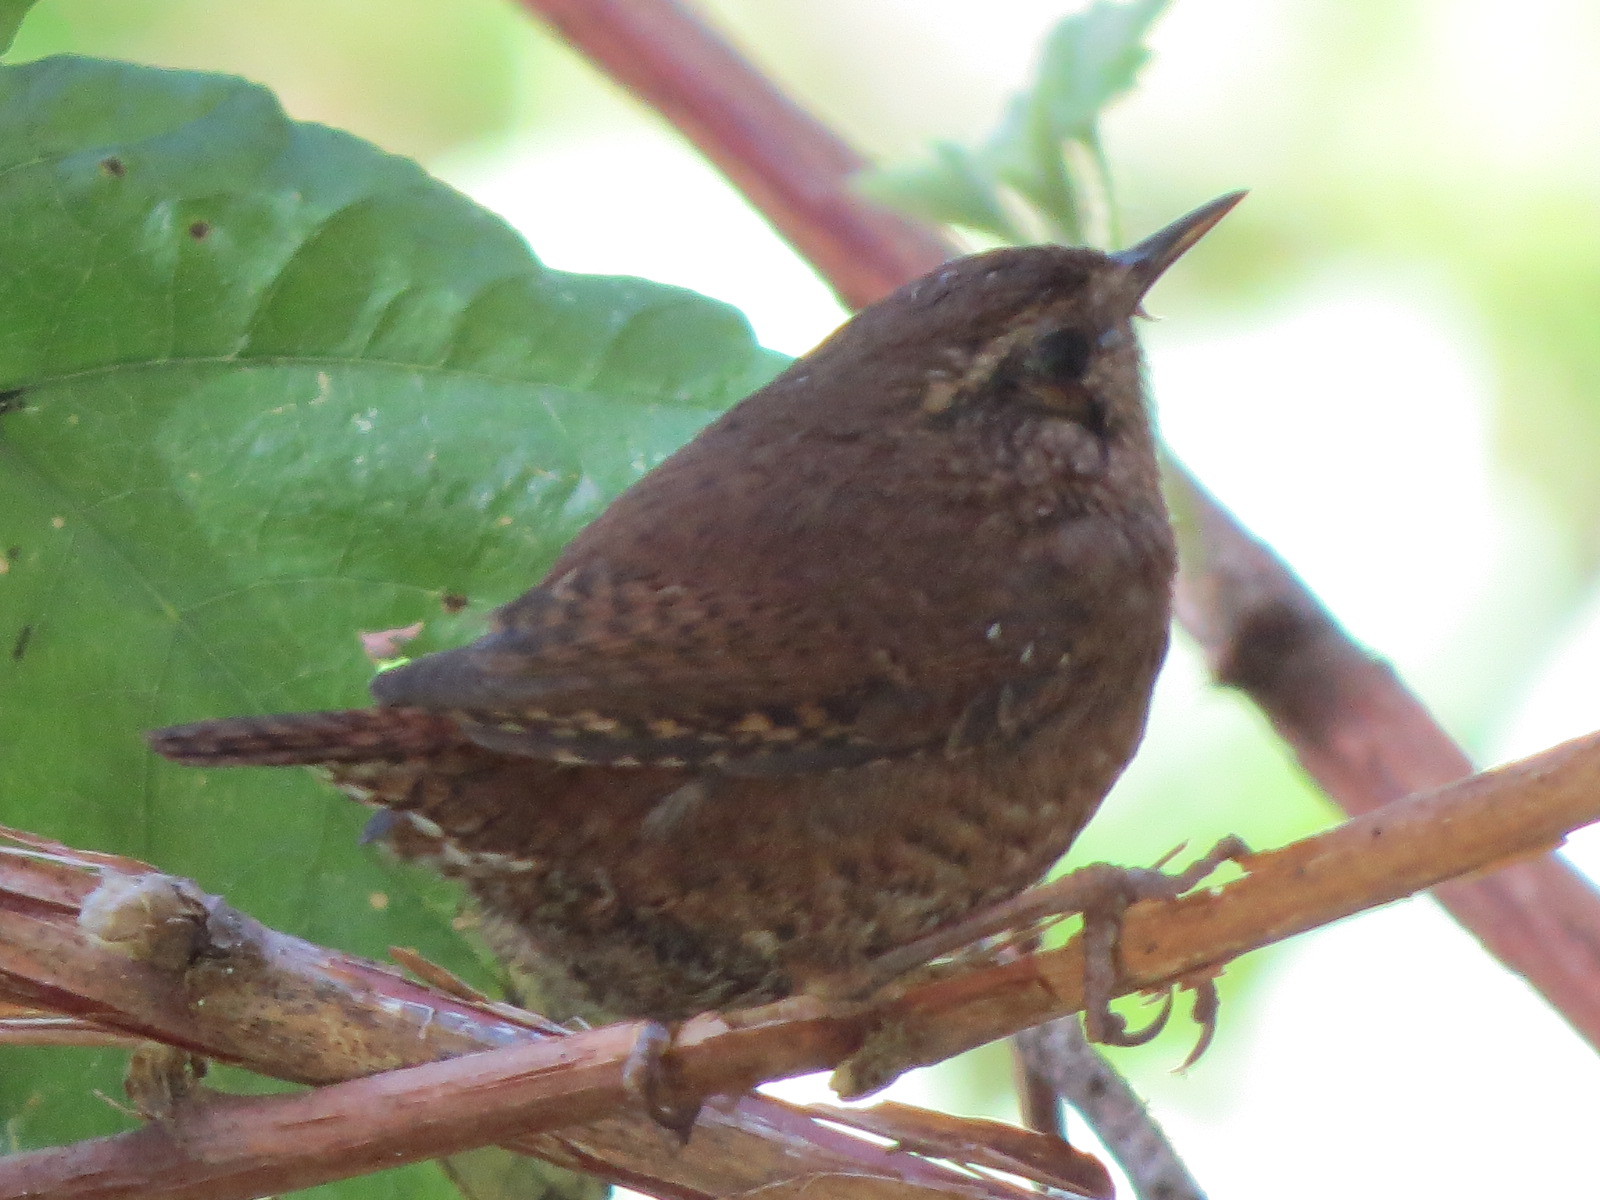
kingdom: Animalia
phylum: Chordata
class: Aves
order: Passeriformes
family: Troglodytidae
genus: Troglodytes
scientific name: Troglodytes pacificus
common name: Pacific wren
